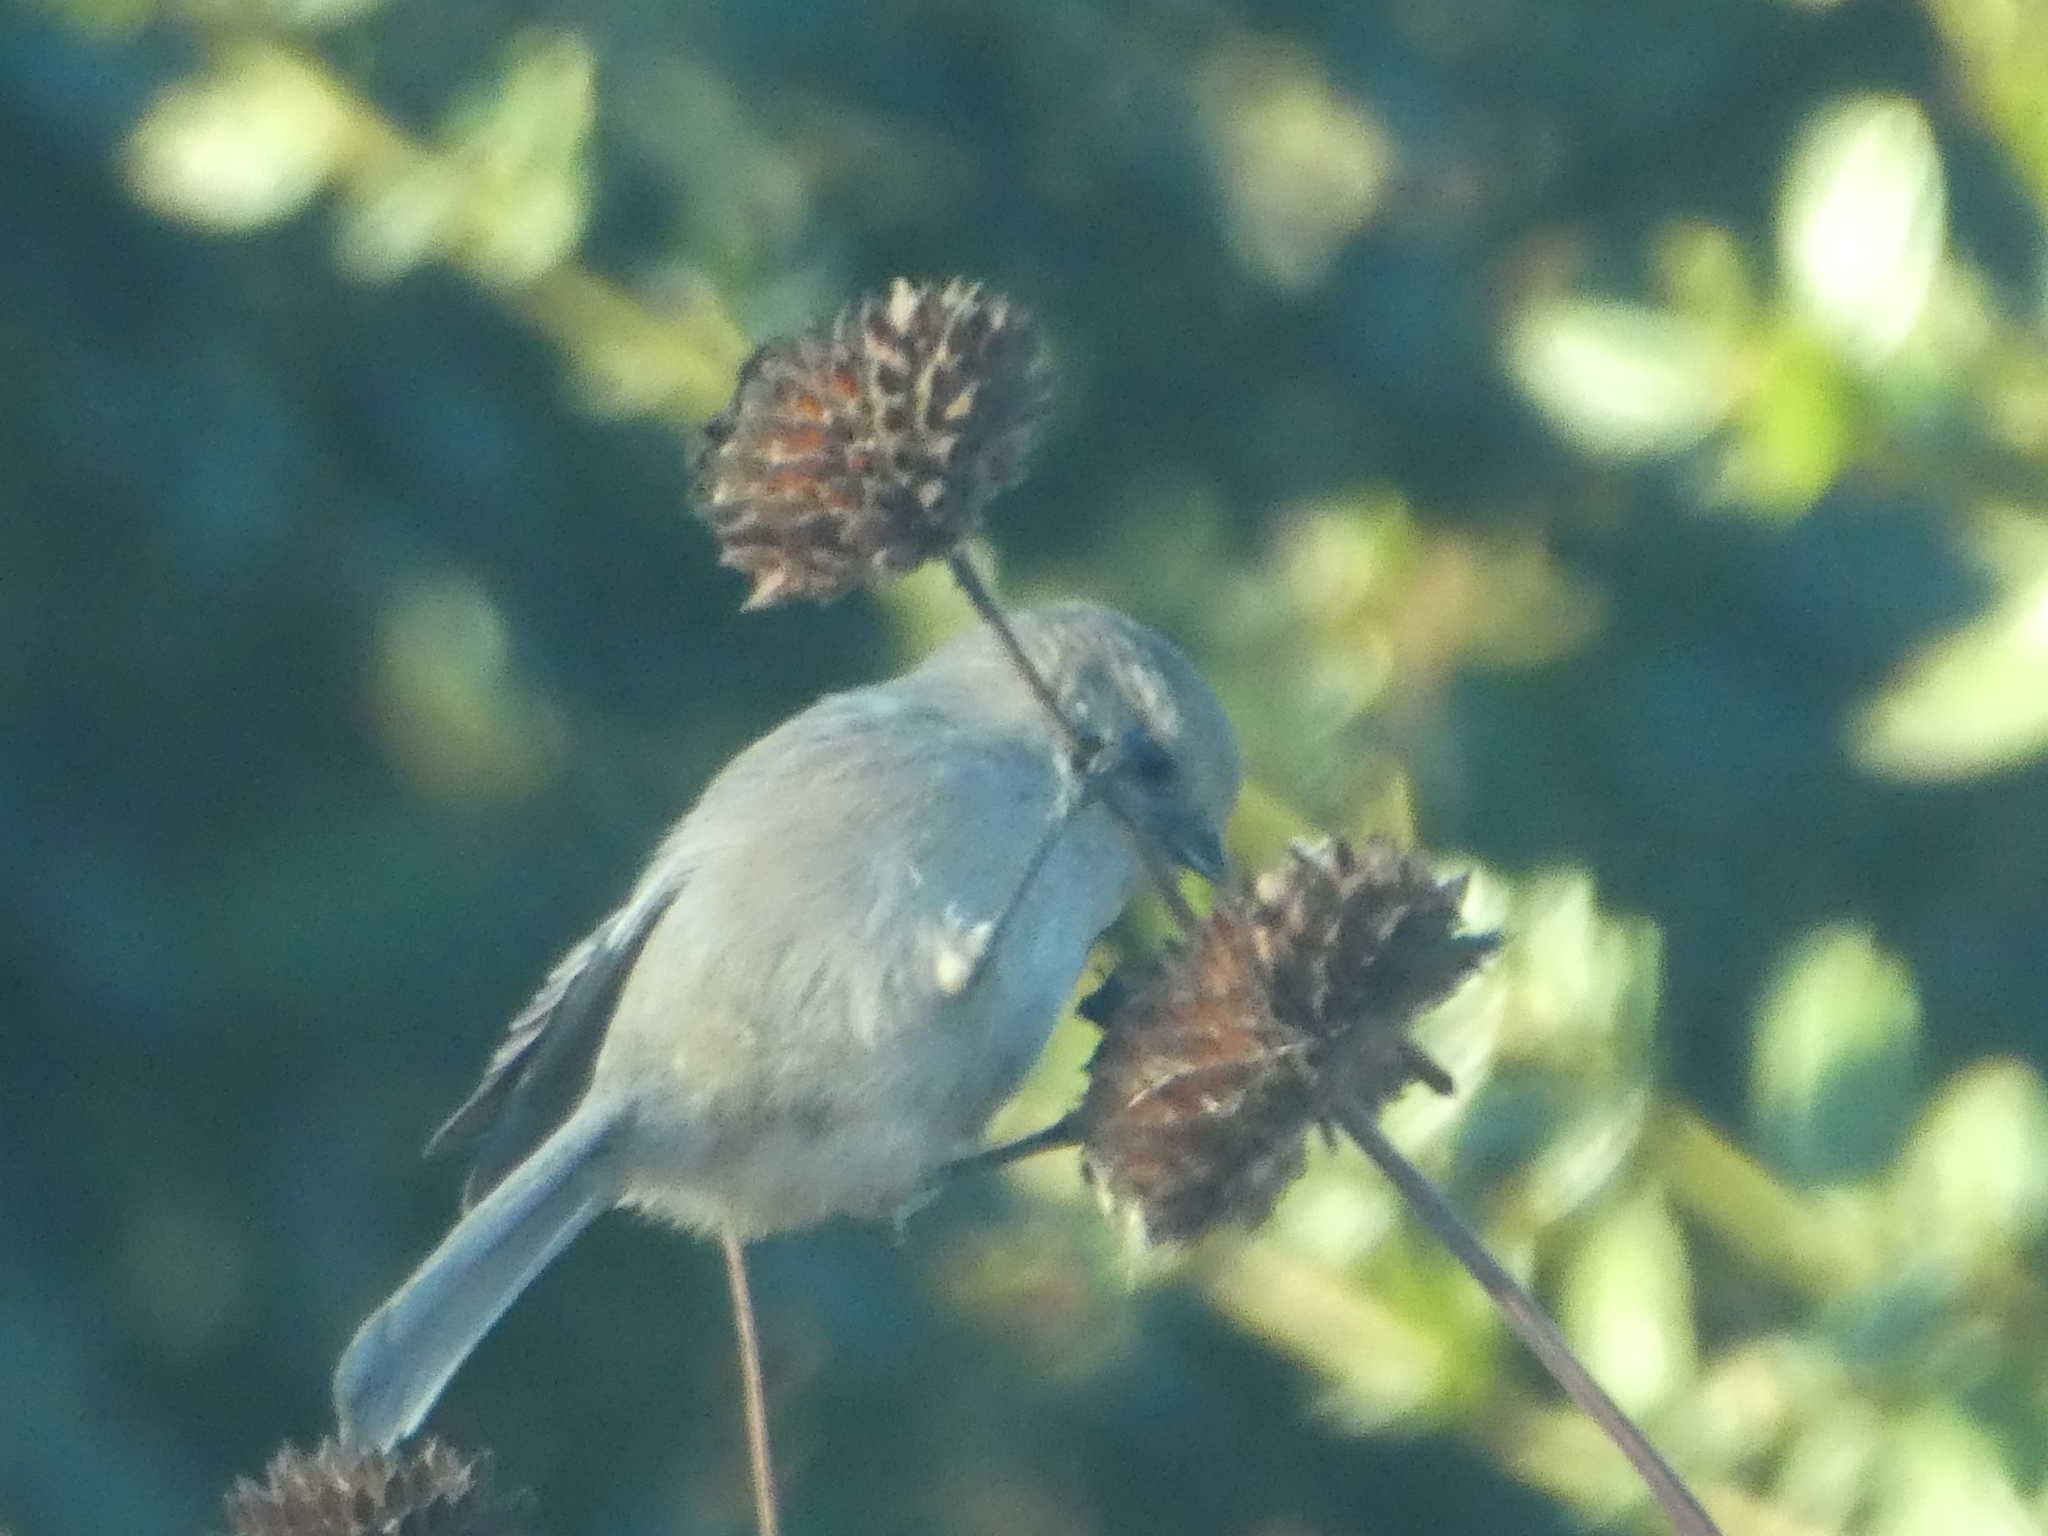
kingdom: Animalia
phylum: Chordata
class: Aves
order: Passeriformes
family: Aegithalidae
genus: Psaltriparus
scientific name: Psaltriparus minimus
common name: American bushtit
